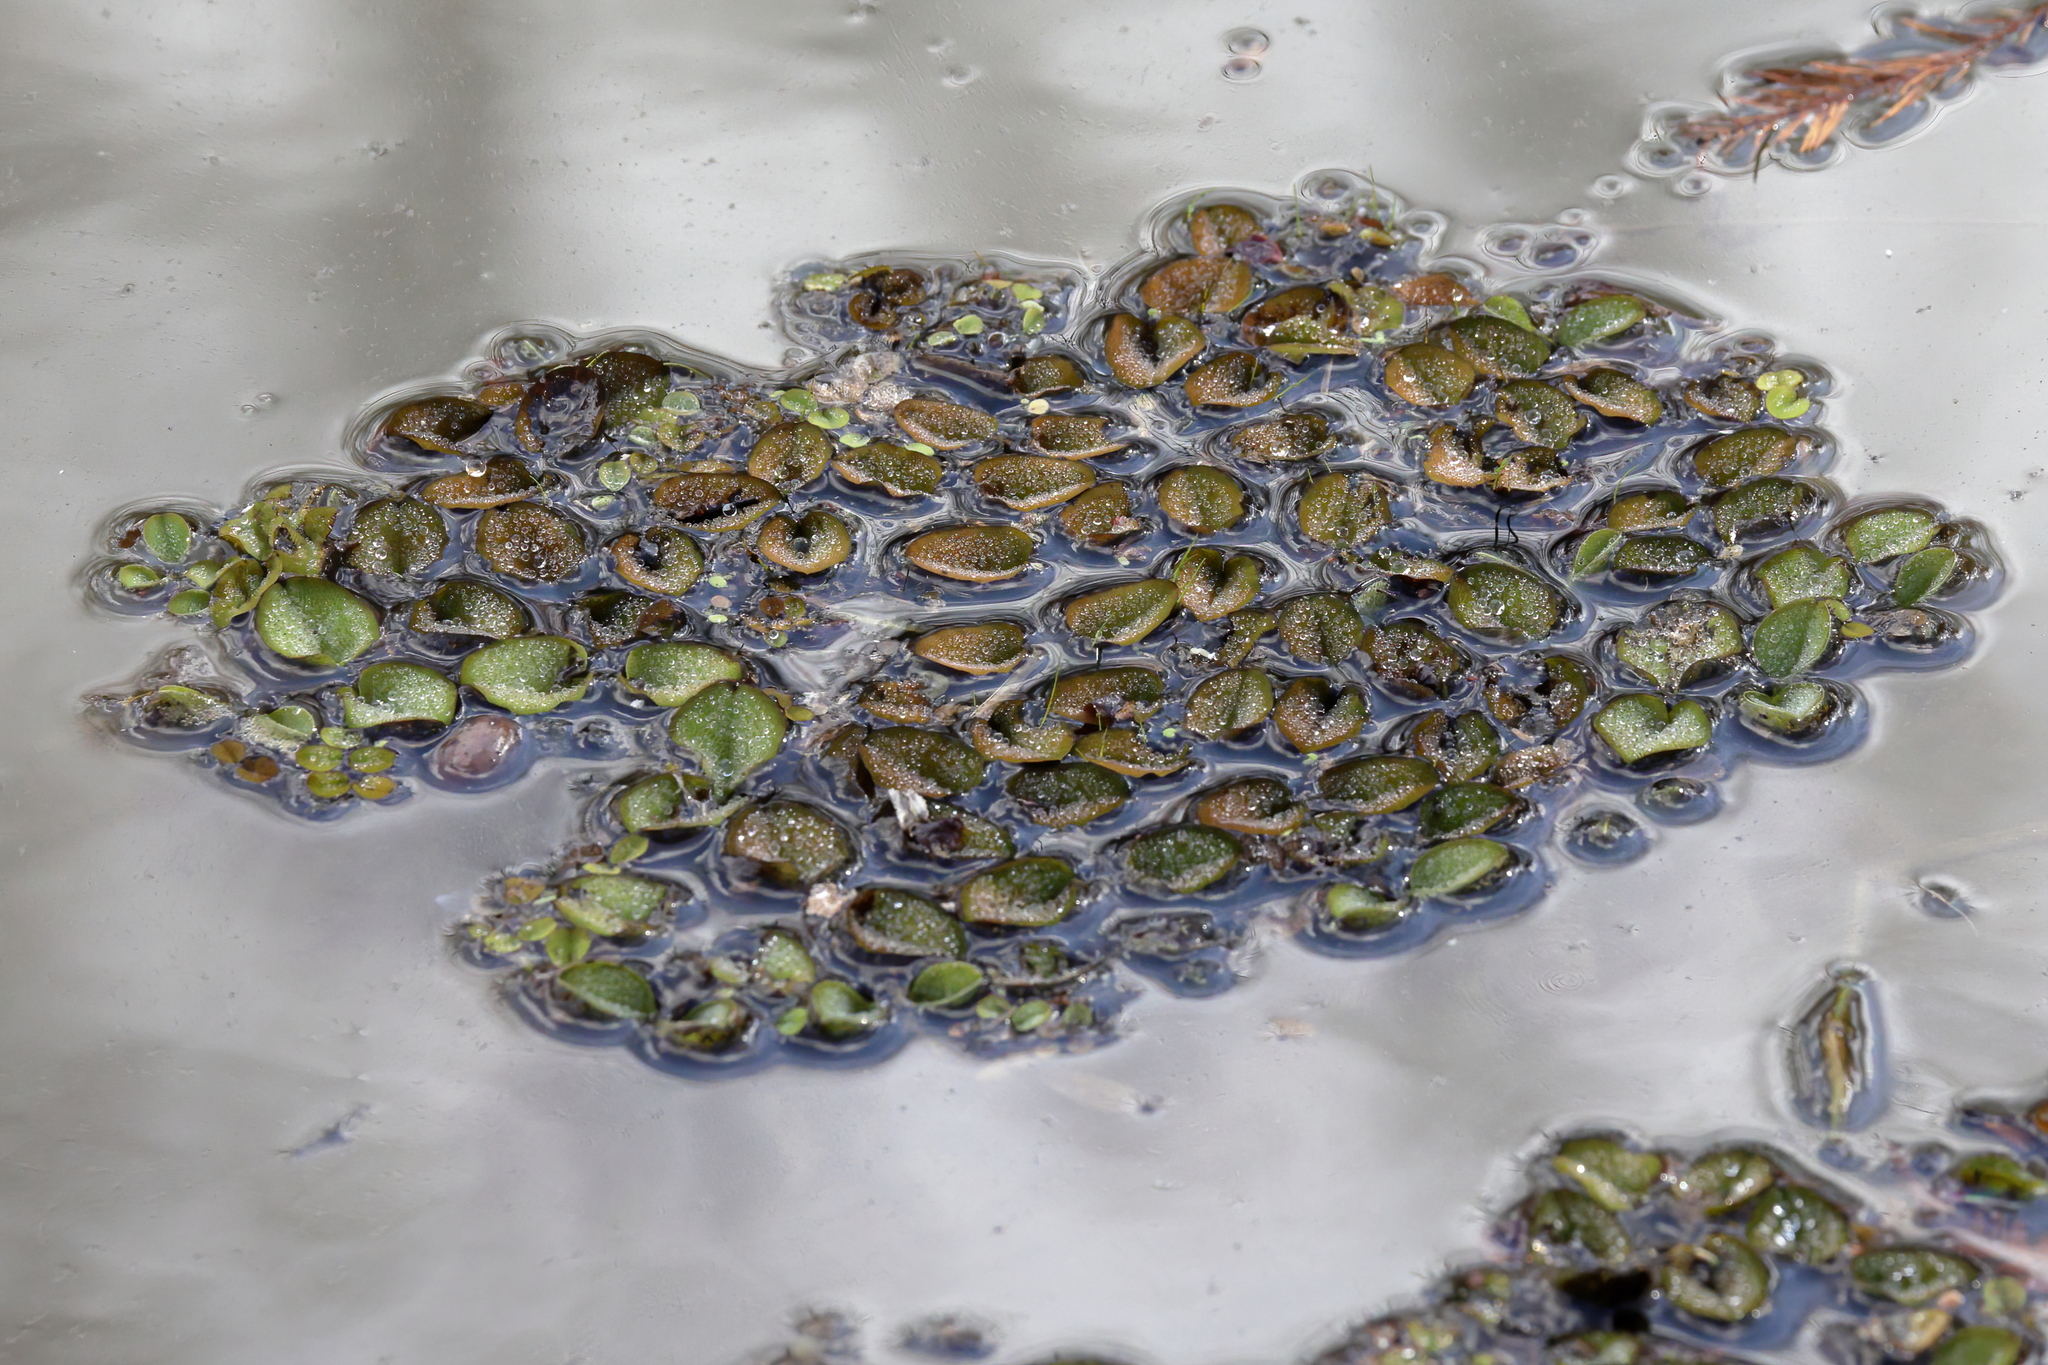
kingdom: Plantae
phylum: Tracheophyta
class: Polypodiopsida
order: Salviniales
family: Salviniaceae
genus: Salvinia
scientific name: Salvinia molesta
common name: Kariba weed
